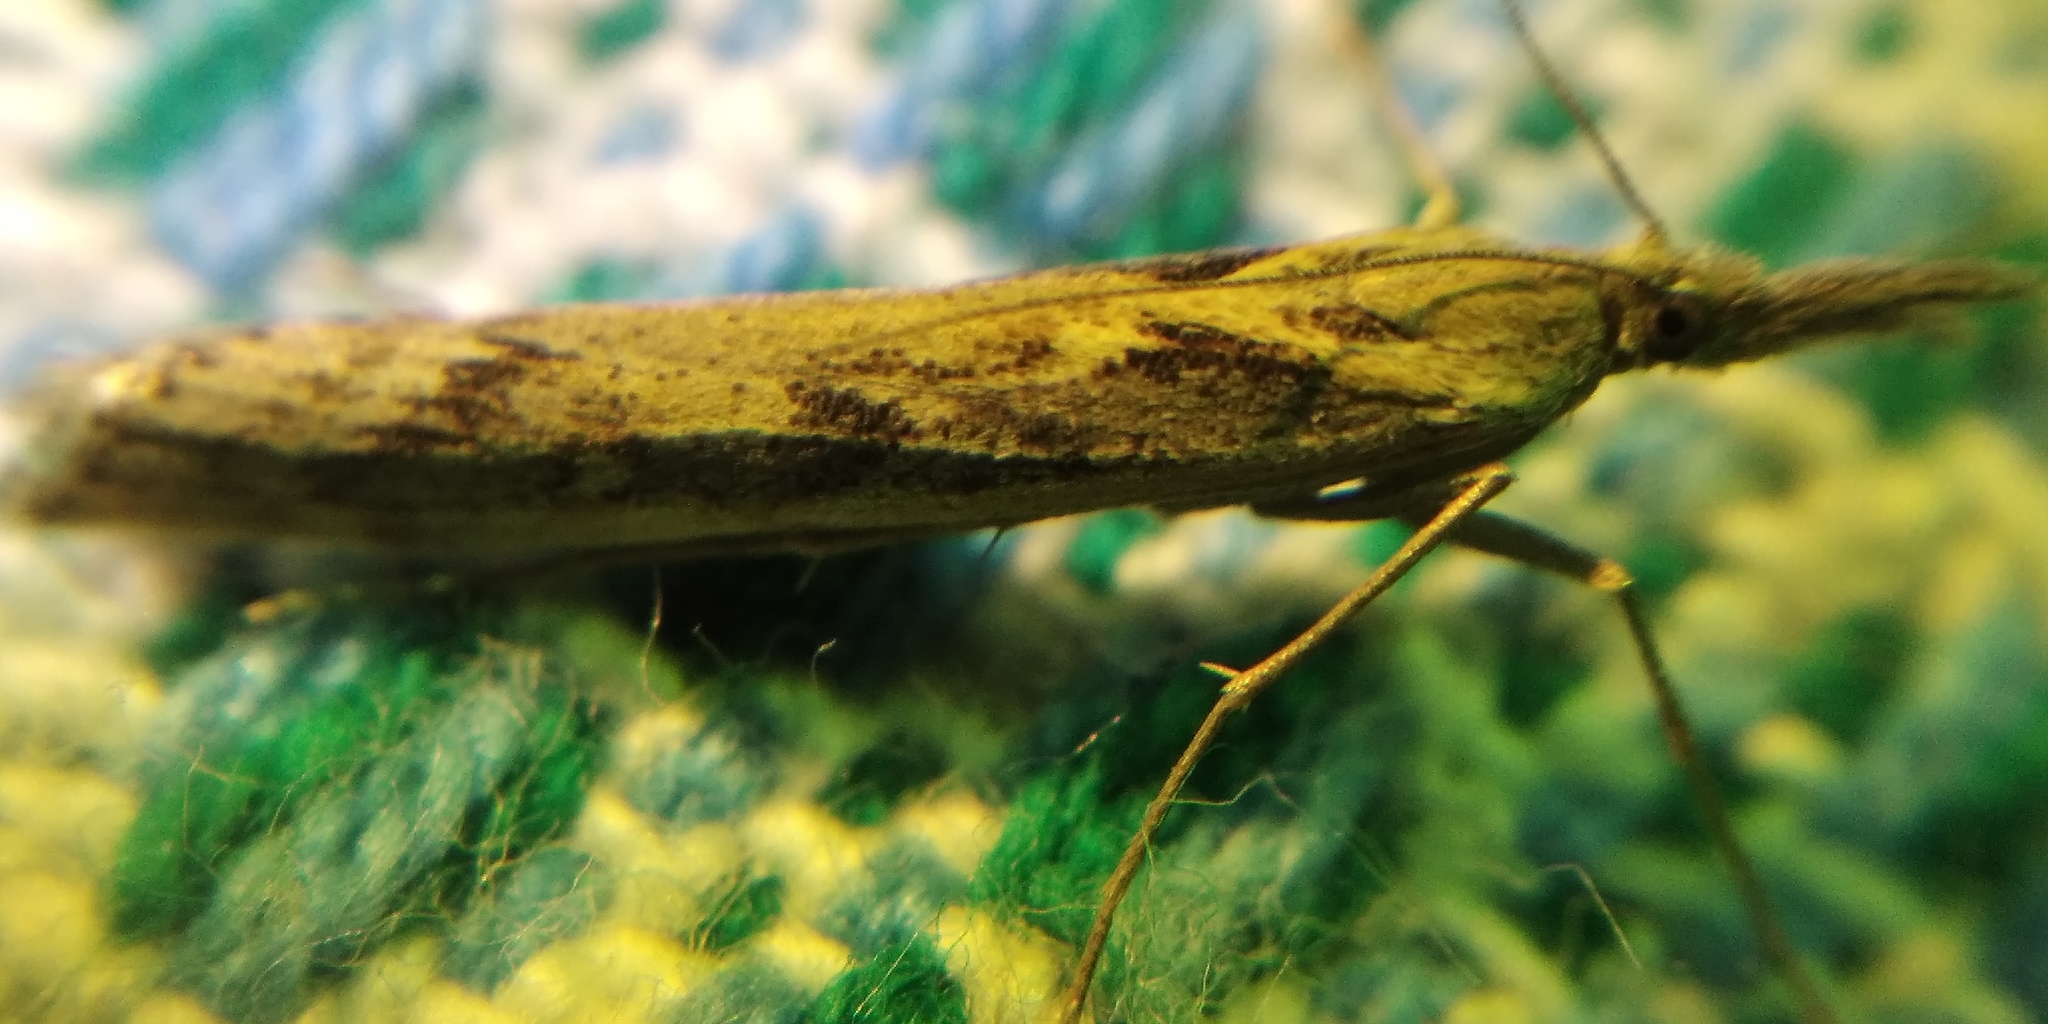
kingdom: Animalia
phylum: Arthropoda
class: Insecta
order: Lepidoptera
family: Crambidae
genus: Pediasia
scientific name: Pediasia matricella
